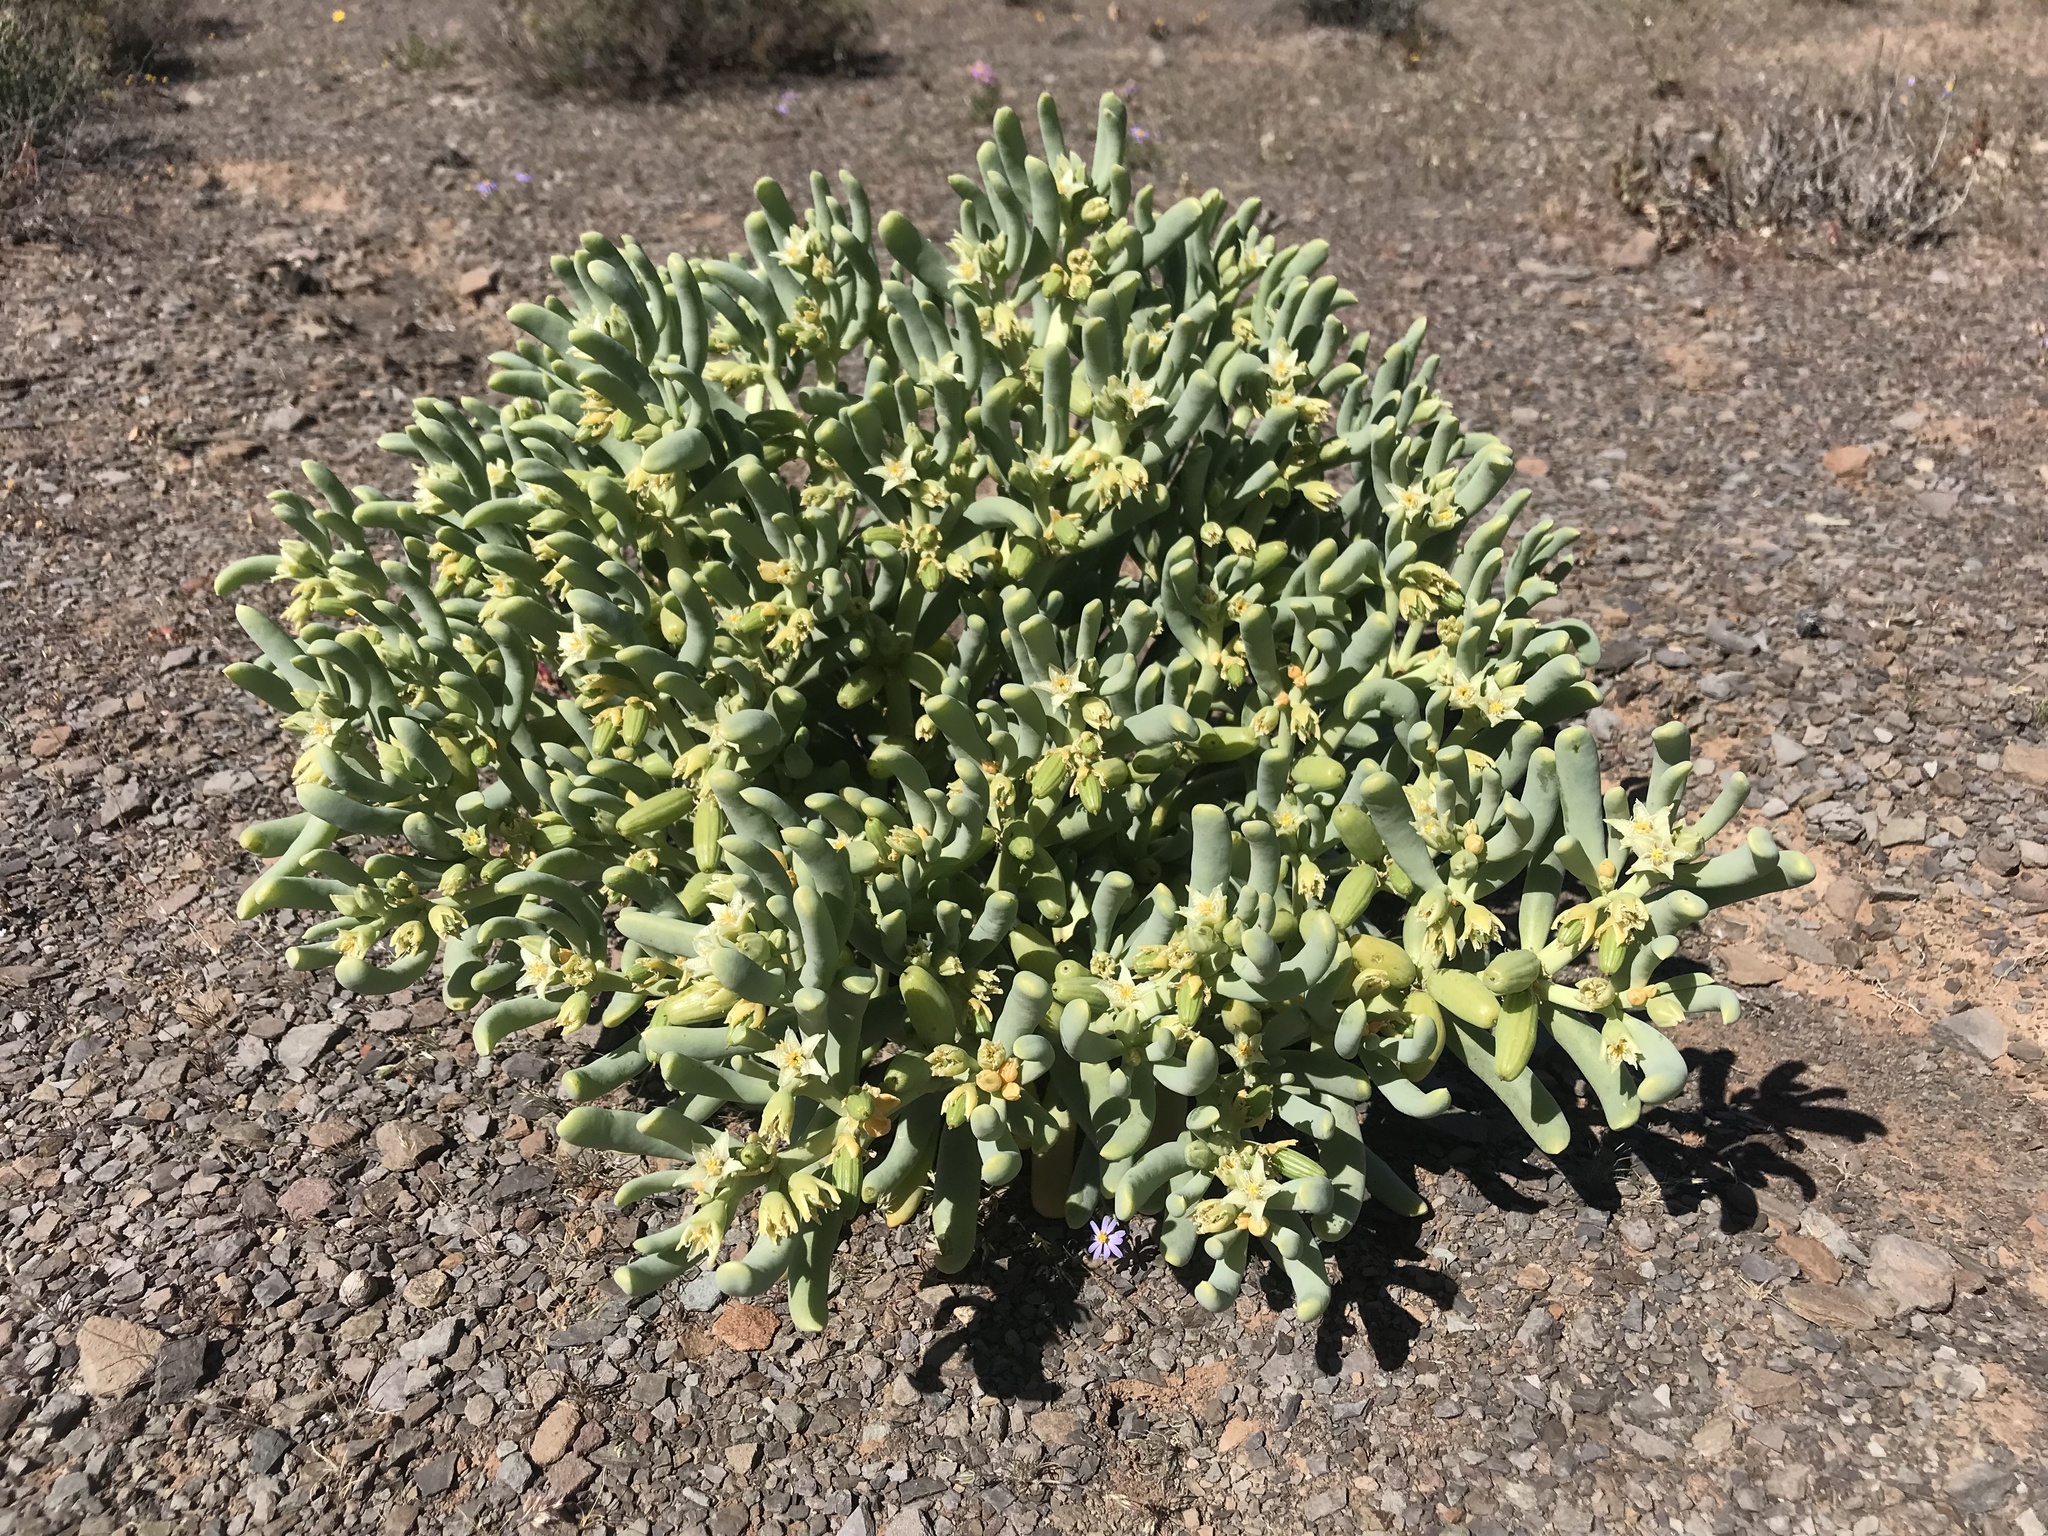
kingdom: Plantae
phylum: Tracheophyta
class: Magnoliopsida
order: Zygophyllales
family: Zygophyllaceae
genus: Augea
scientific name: Augea capensis
